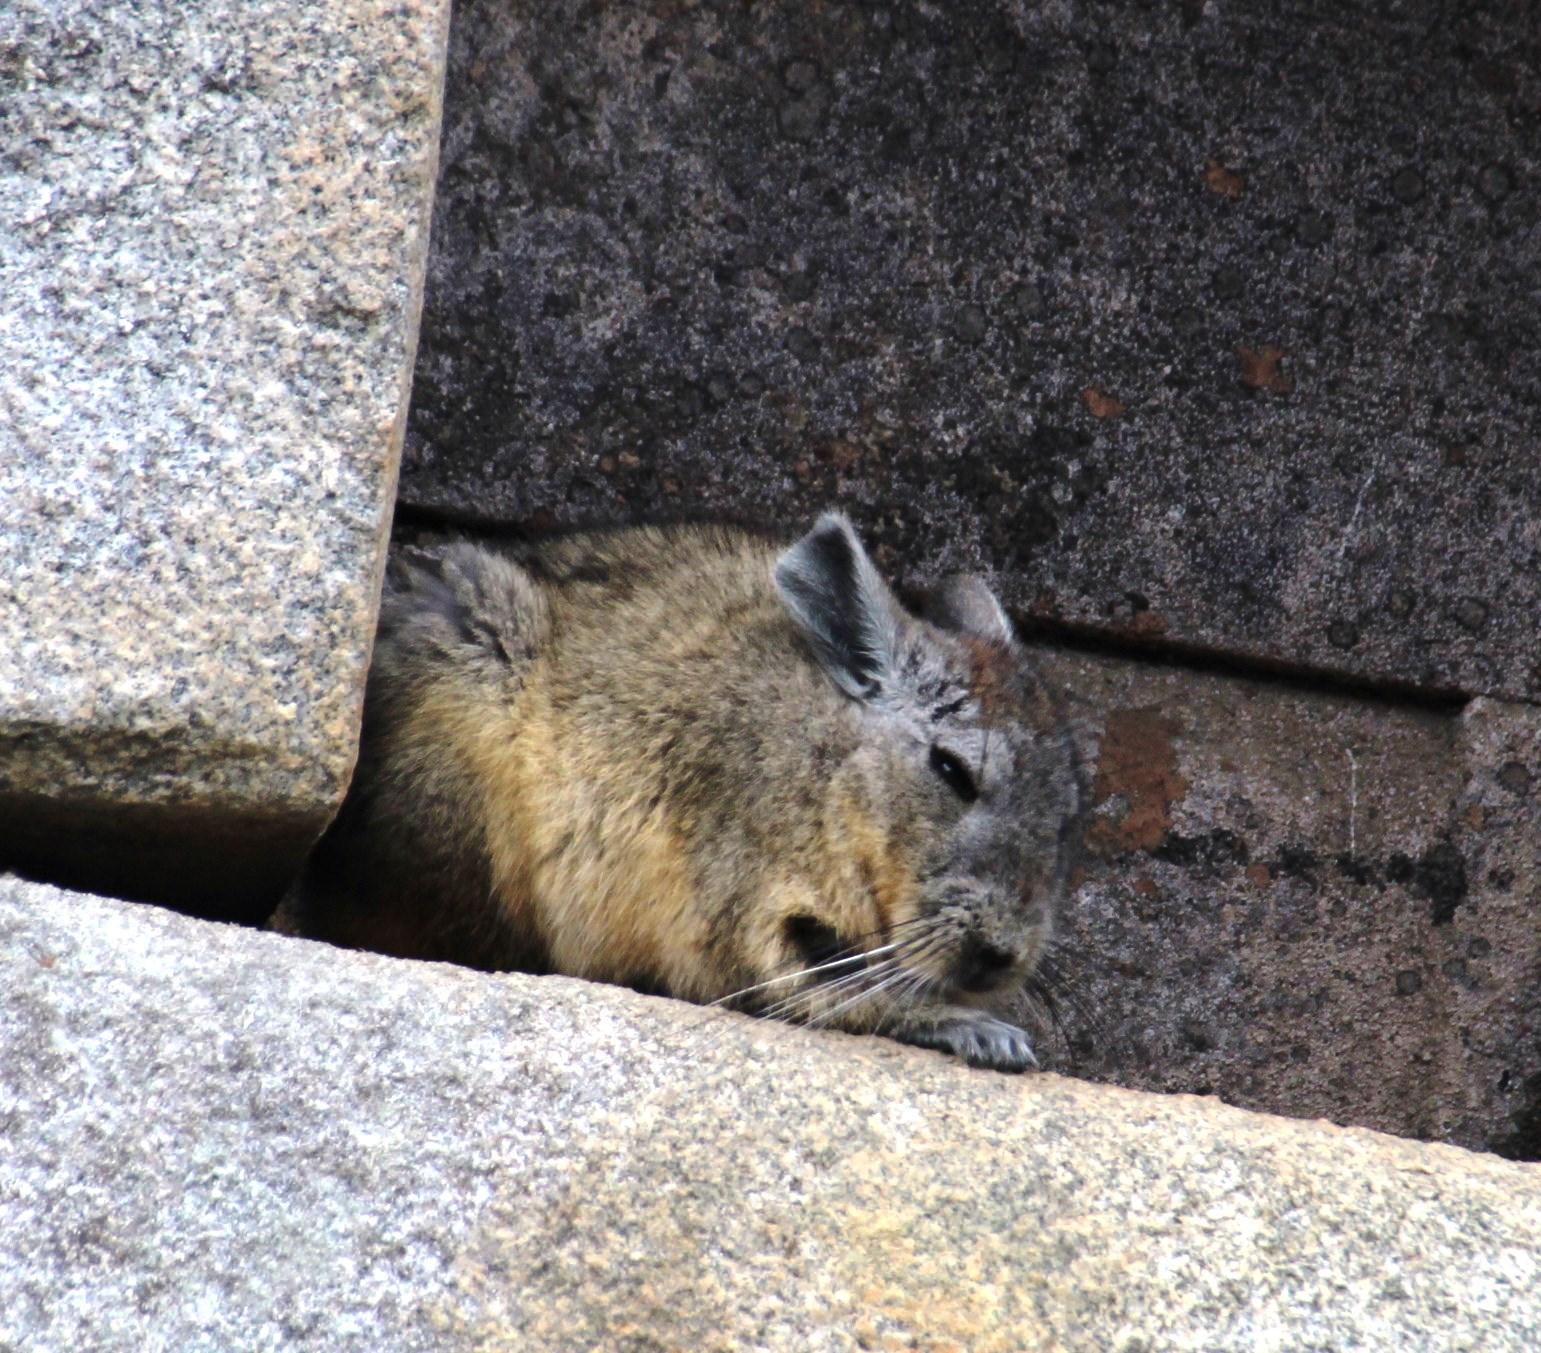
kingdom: Animalia
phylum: Chordata
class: Mammalia
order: Rodentia
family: Chinchillidae
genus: Lagidium
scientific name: Lagidium viscacia
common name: Southern viscacha
